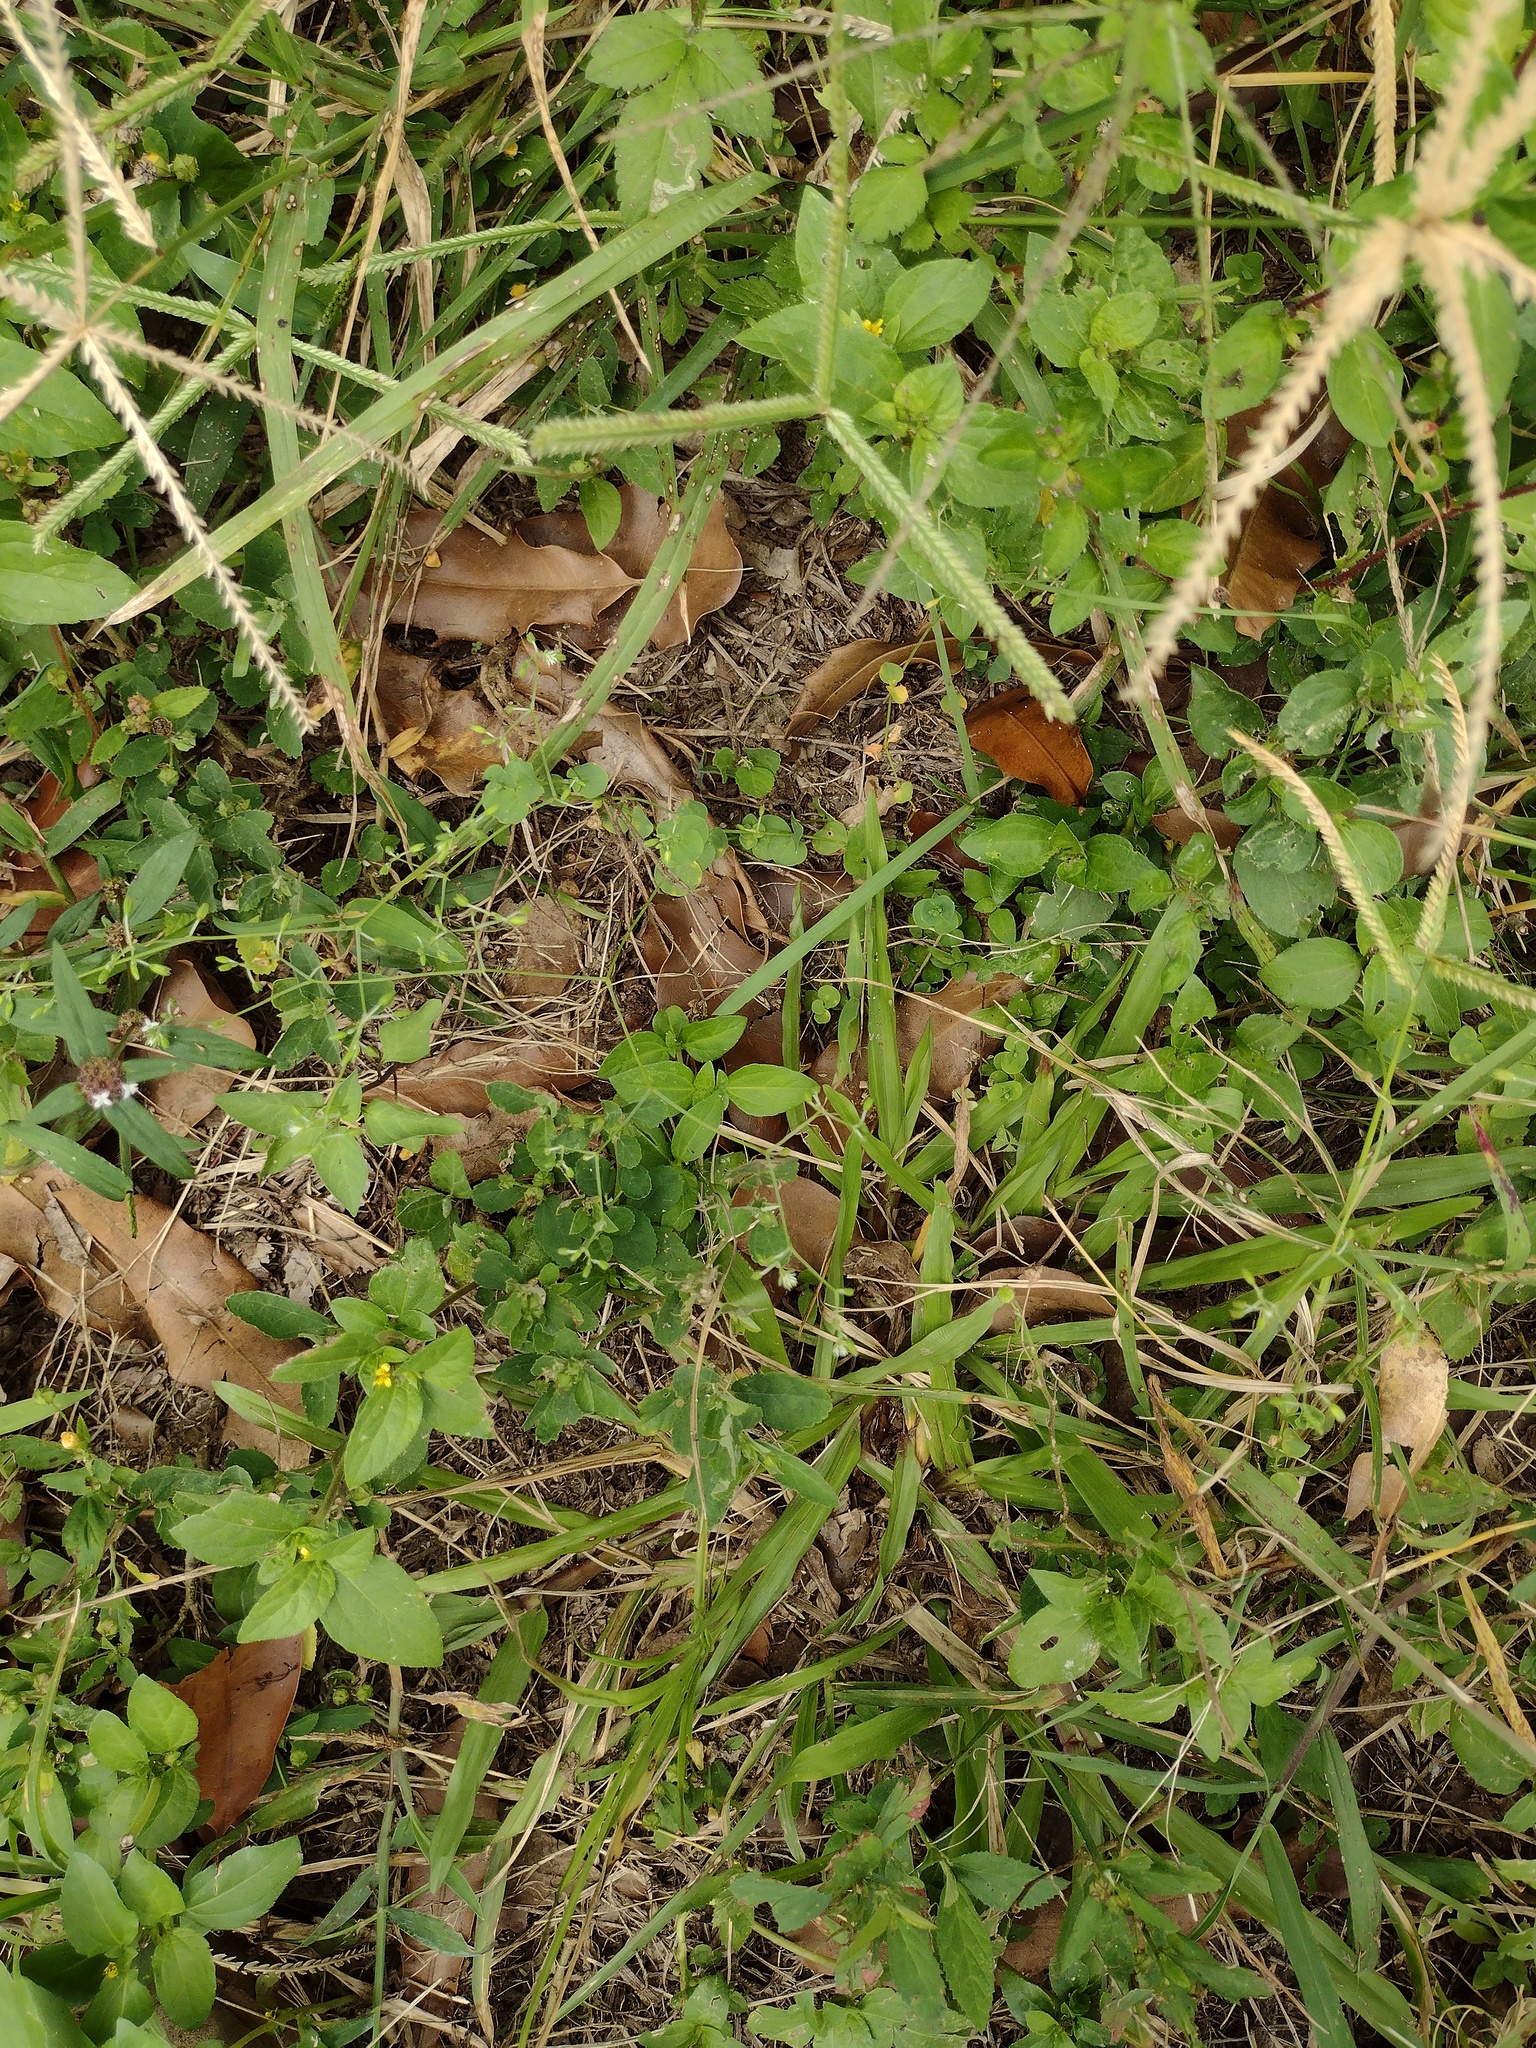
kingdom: Plantae
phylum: Tracheophyta
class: Magnoliopsida
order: Caryophyllales
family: Caryophyllaceae
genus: Drymaria
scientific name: Drymaria cordata
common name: Whitesnow
